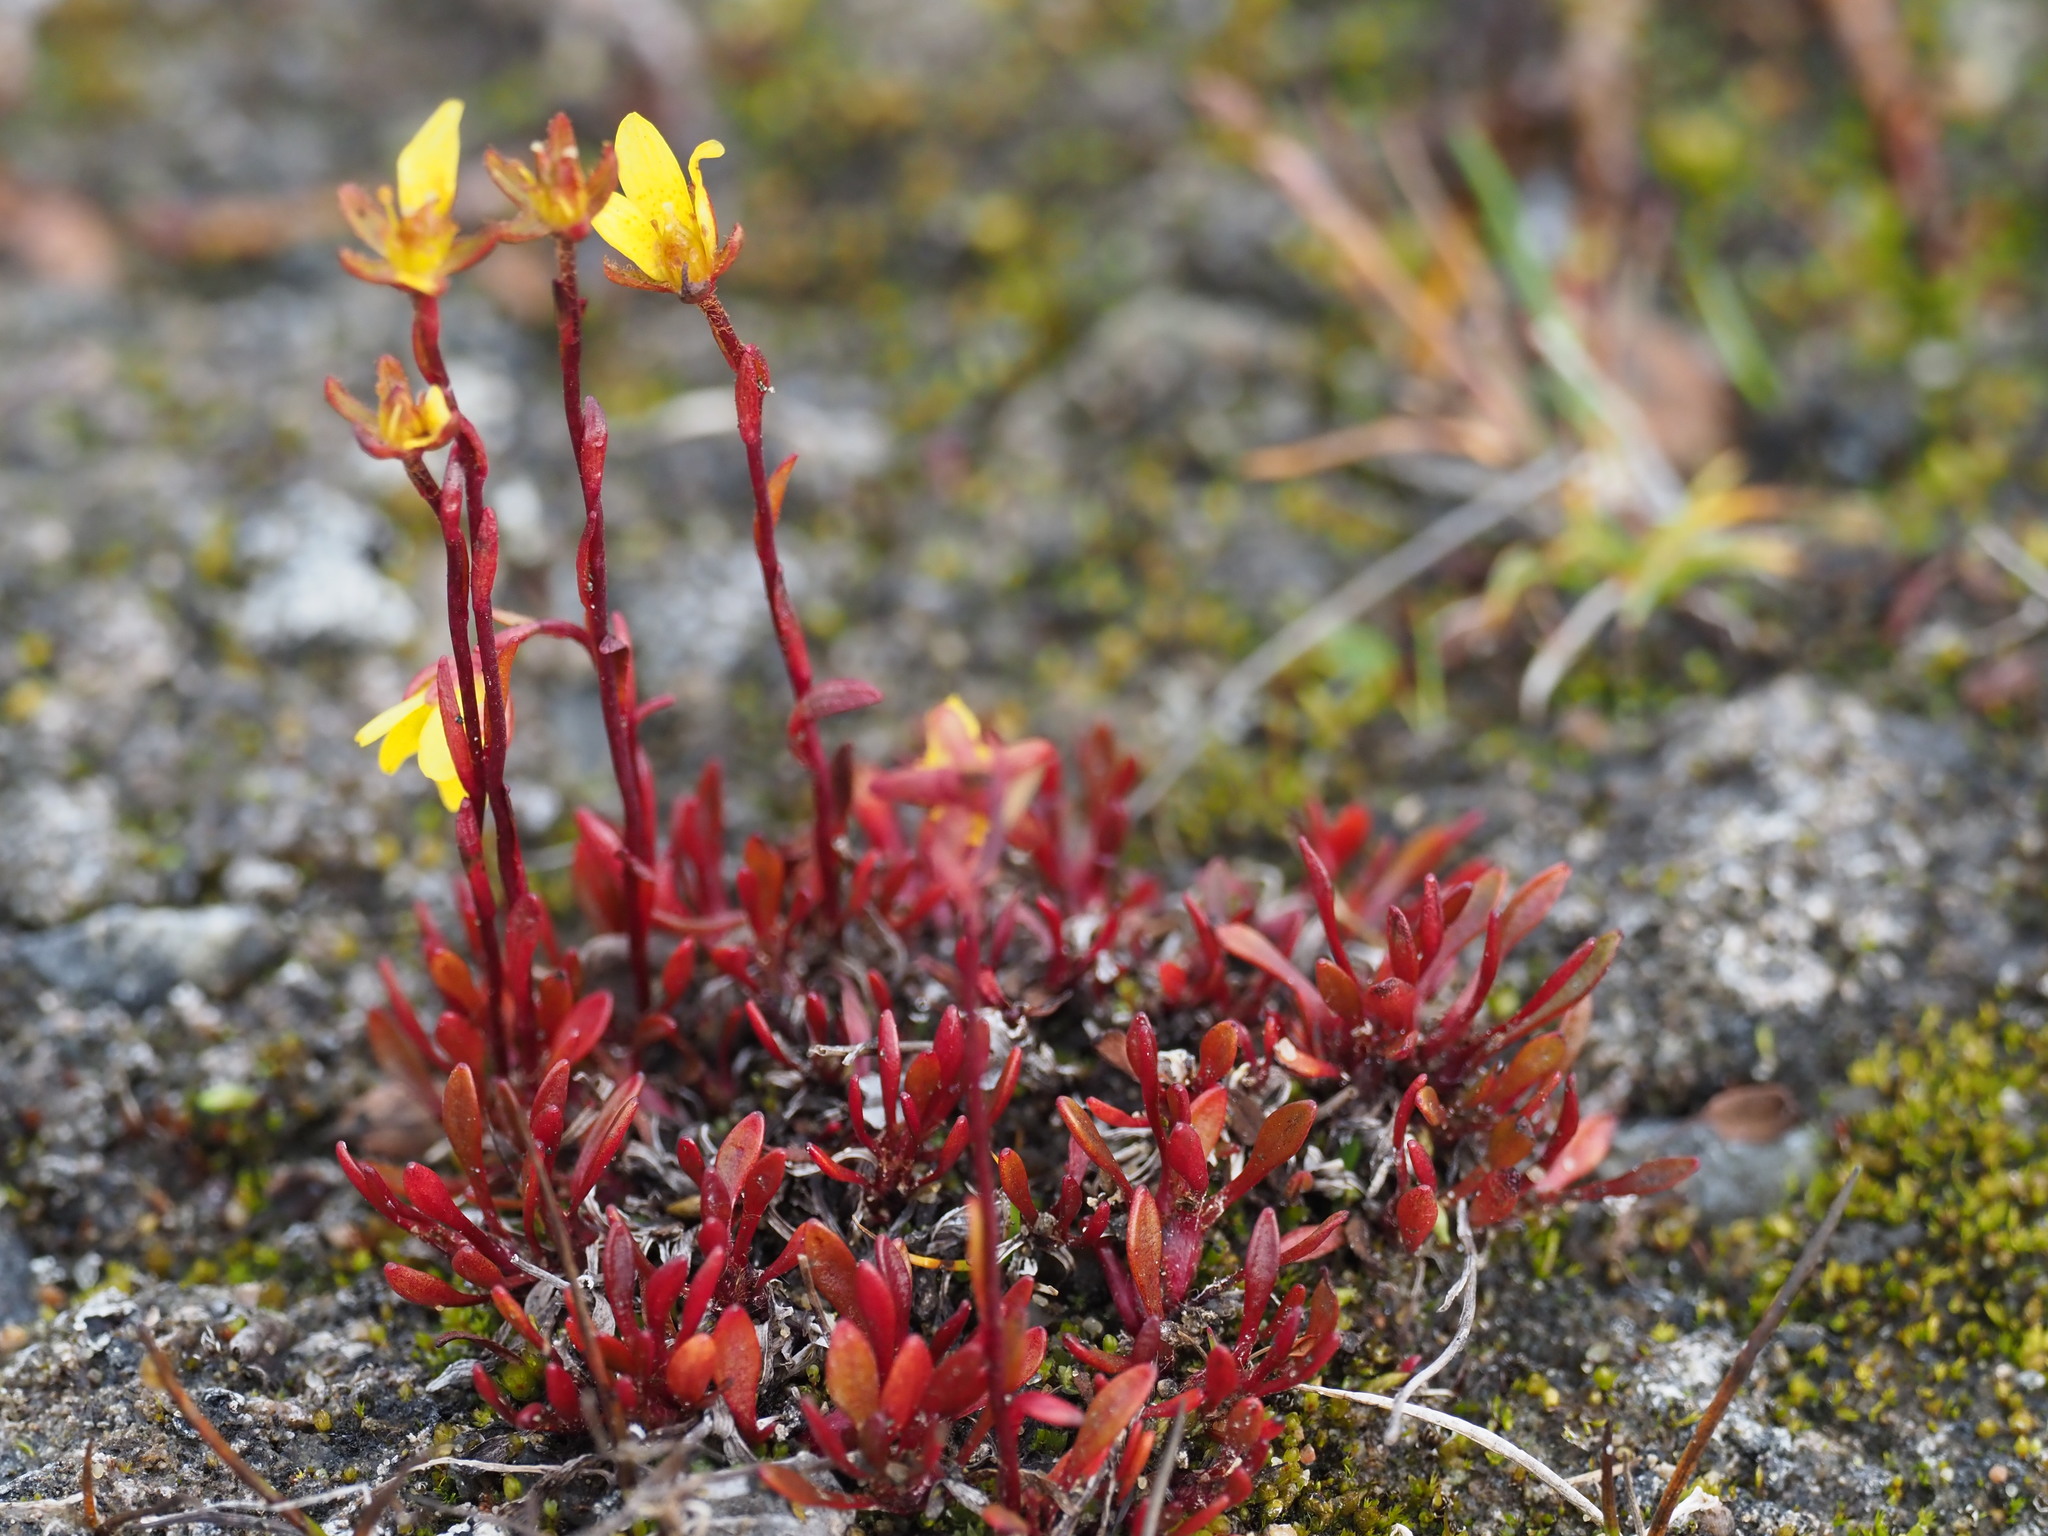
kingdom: Plantae
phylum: Tracheophyta
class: Magnoliopsida
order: Saxifragales
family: Saxifragaceae
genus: Saxifraga
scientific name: Saxifraga hirculus
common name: Yellow marsh saxifrage
